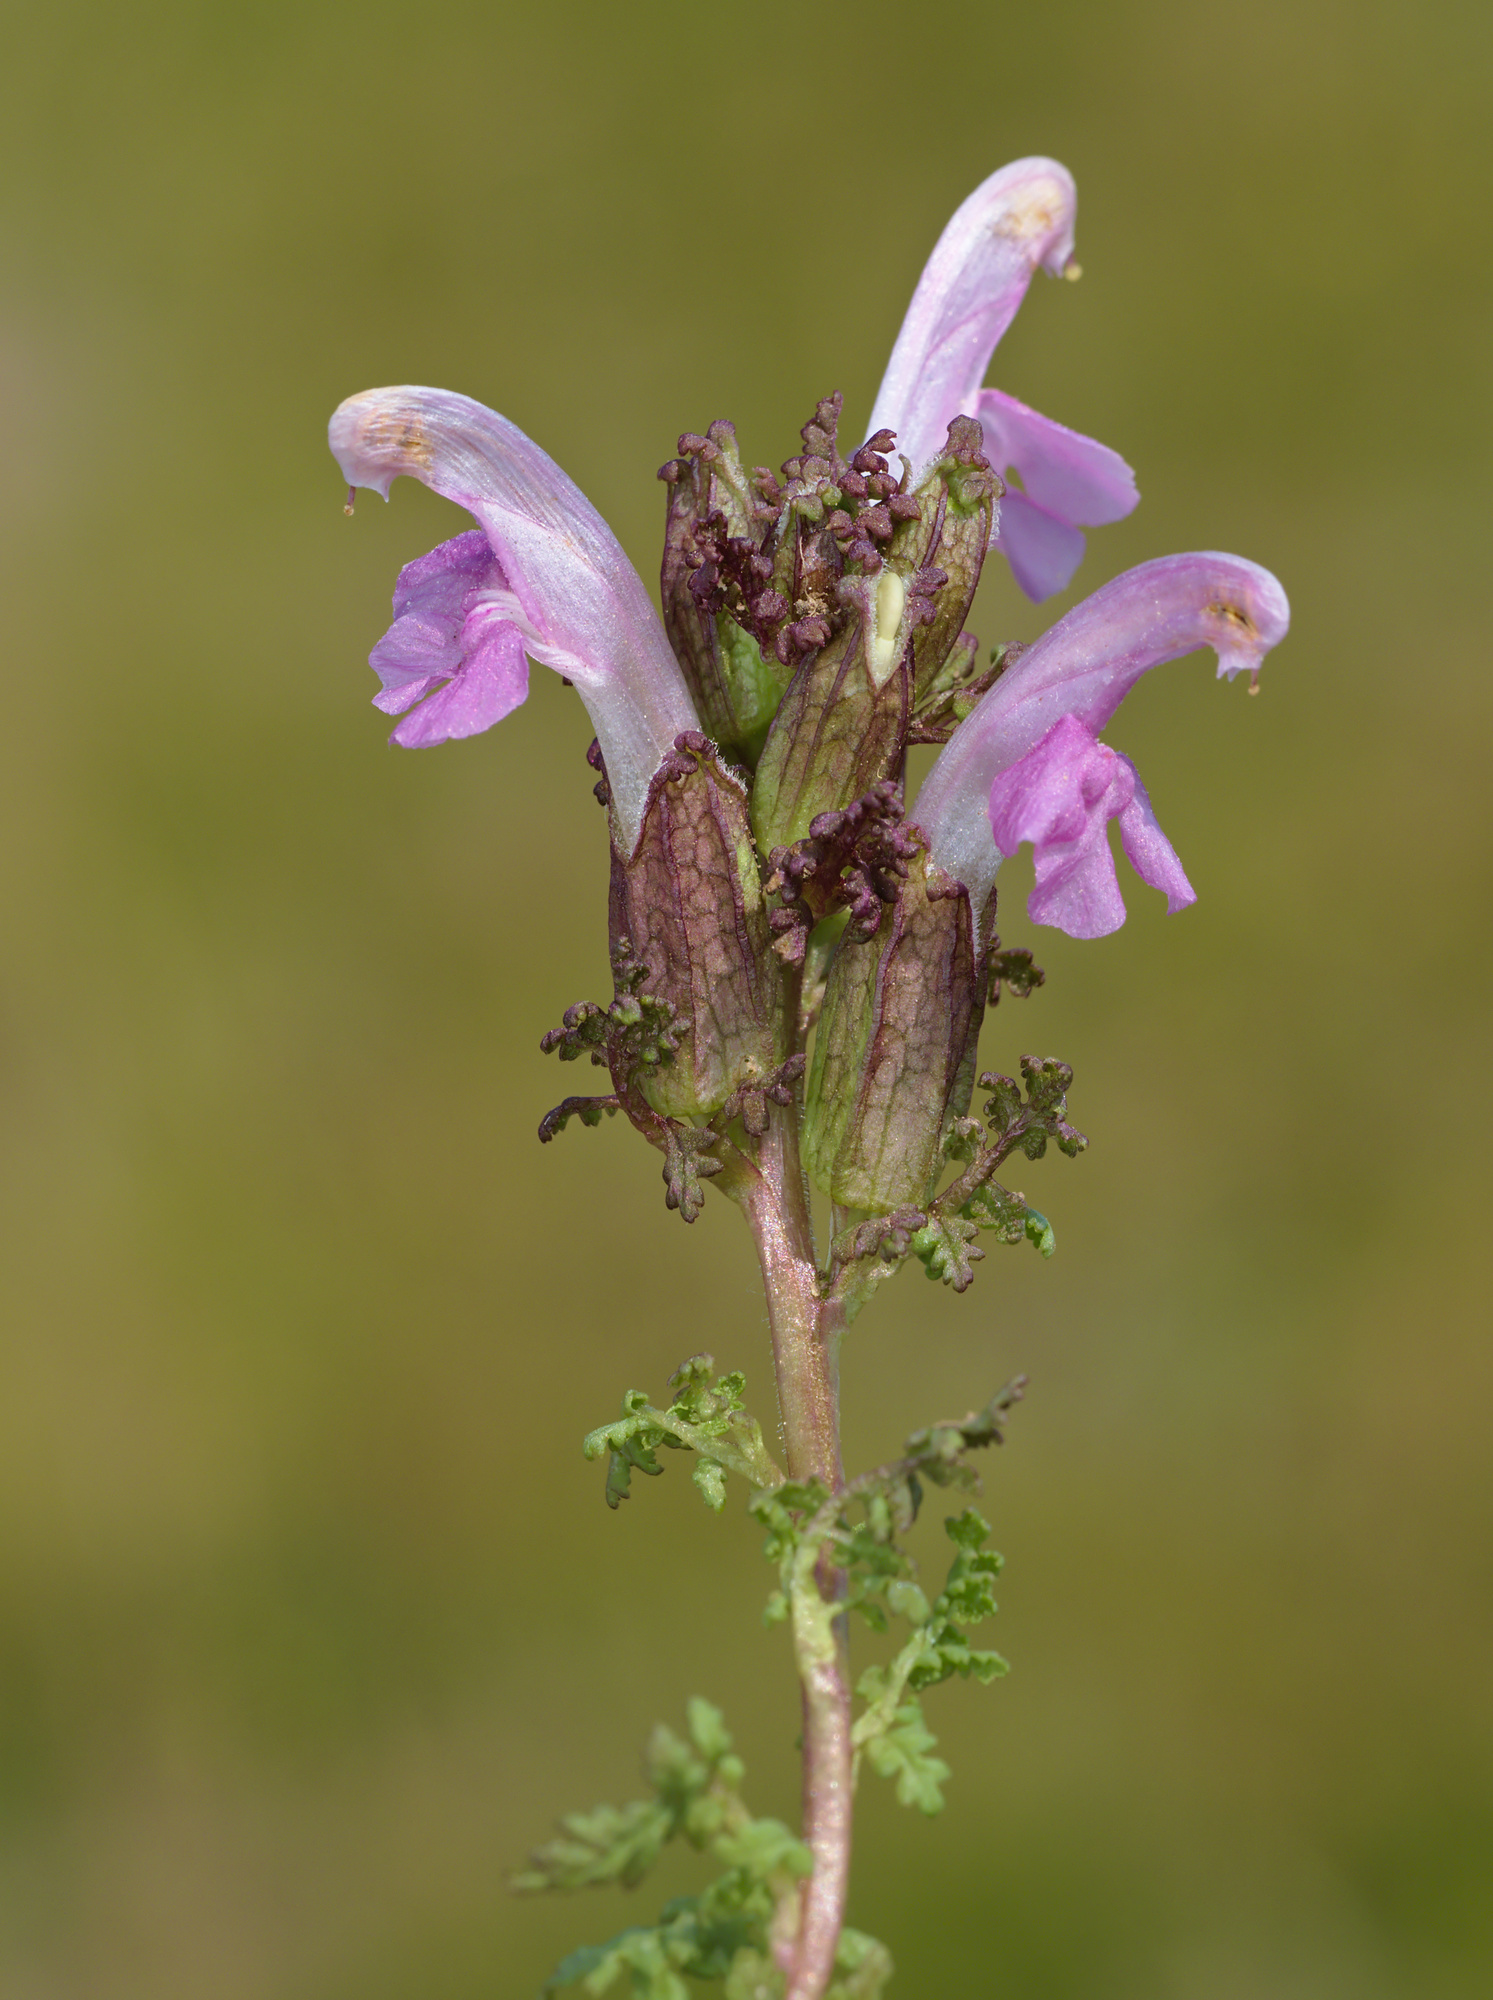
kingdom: Plantae
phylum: Tracheophyta
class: Magnoliopsida
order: Lamiales
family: Orobanchaceae
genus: Pedicularis
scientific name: Pedicularis sylvatica
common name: Lousewort
